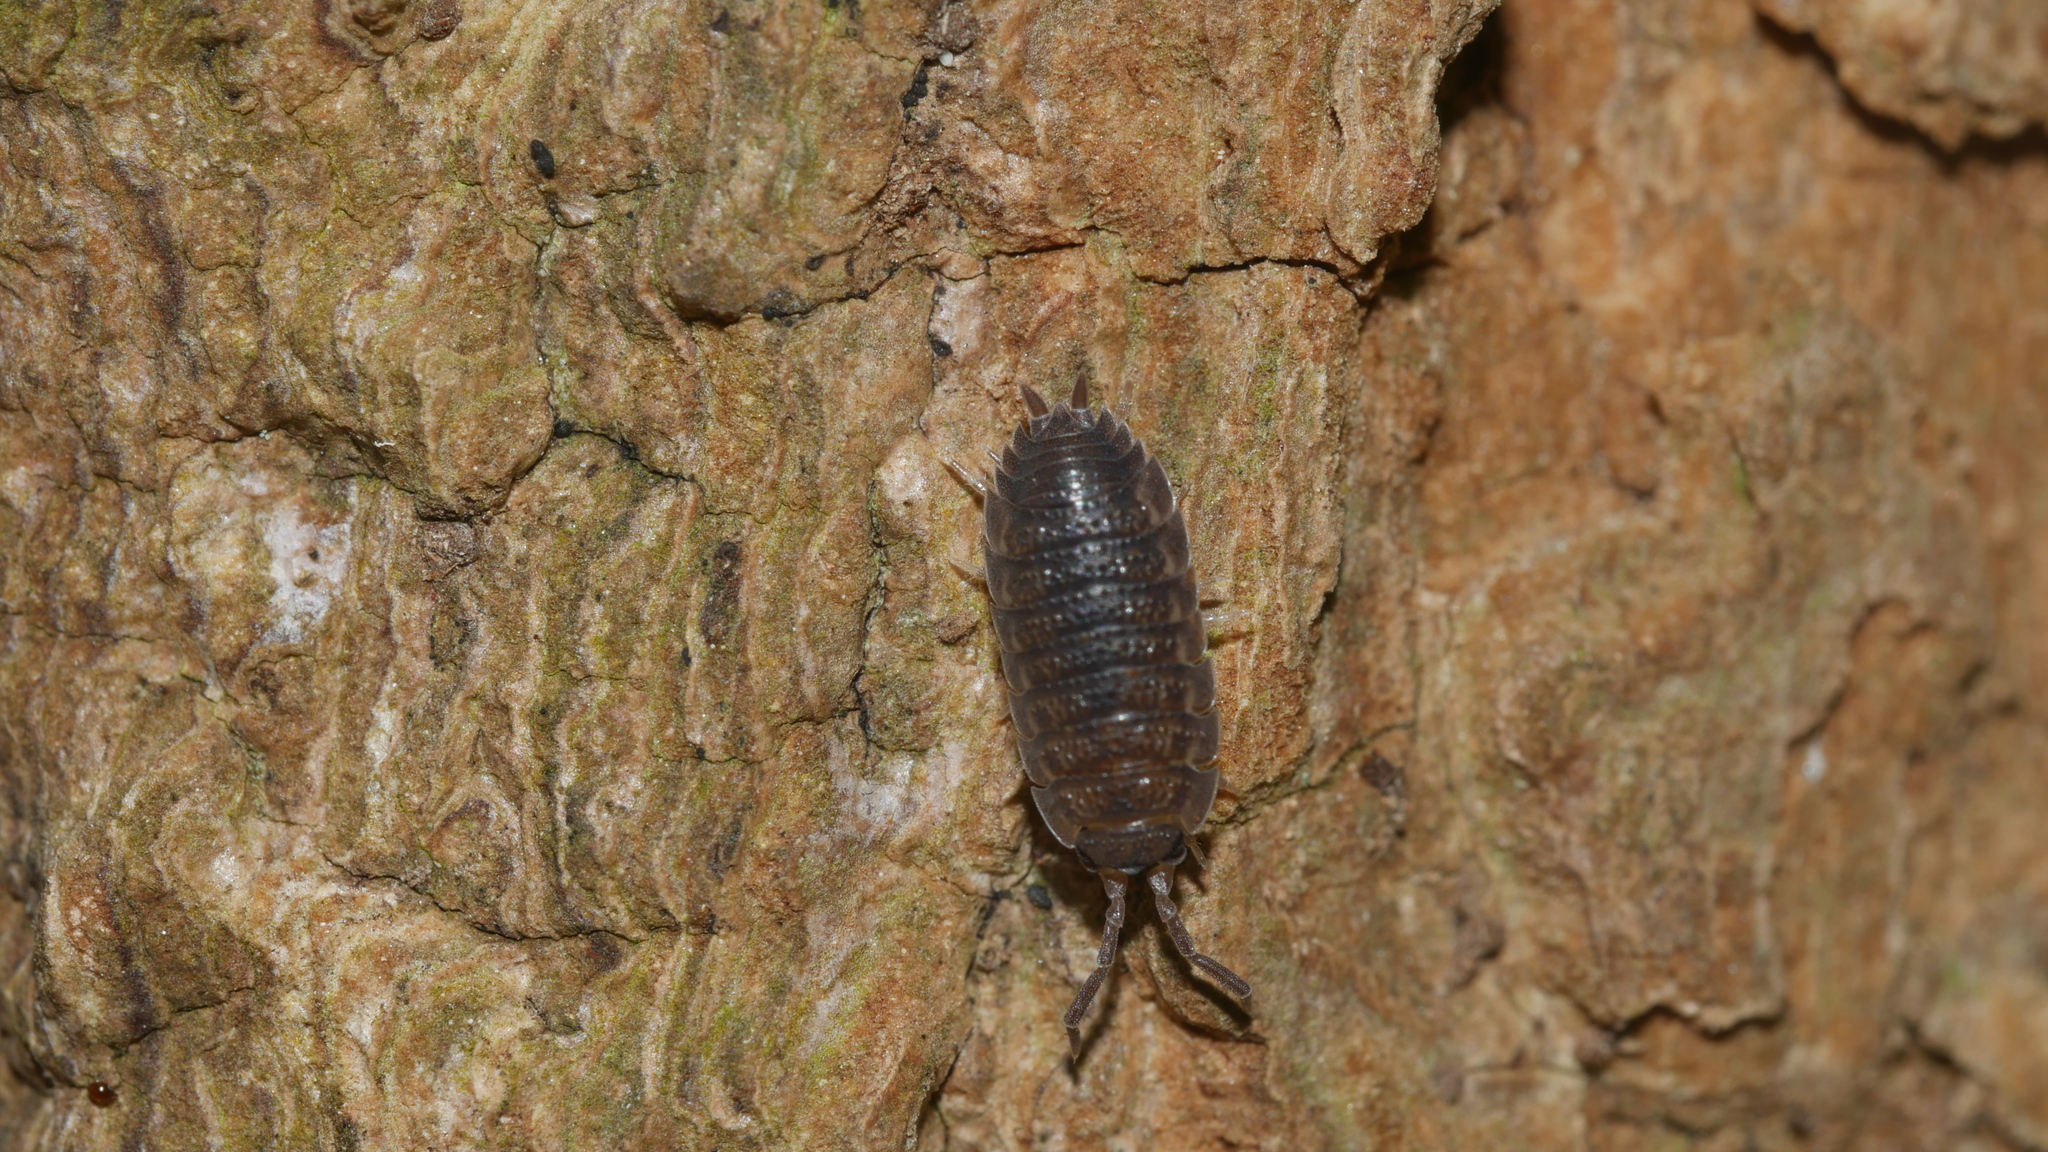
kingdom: Animalia
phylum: Arthropoda
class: Malacostraca
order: Isopoda
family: Porcellionidae
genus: Porcellio
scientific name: Porcellio scaber
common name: Common rough woodlouse
